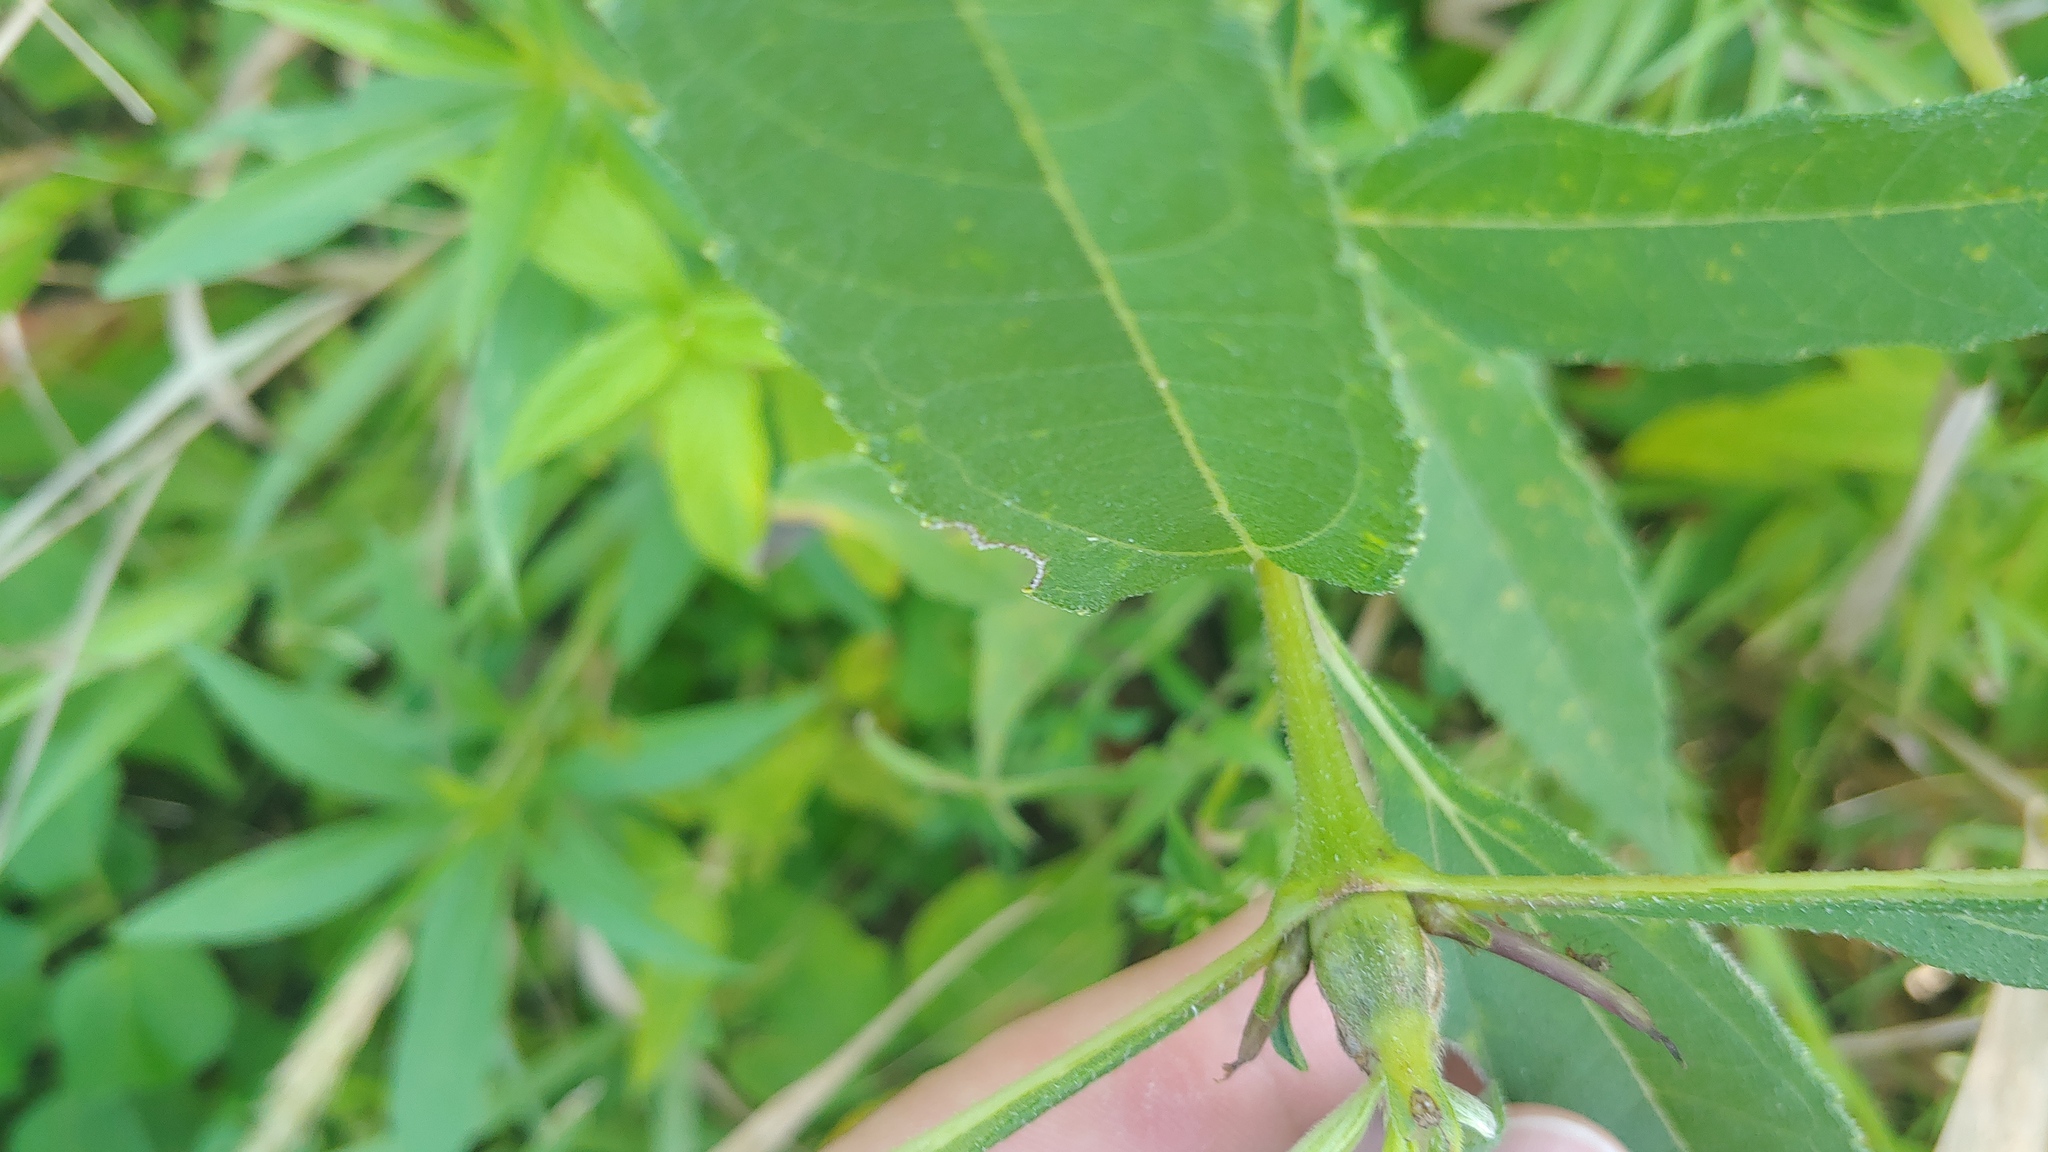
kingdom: Animalia
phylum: Arthropoda
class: Insecta
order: Diptera
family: Cecidomyiidae
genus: Olpodiplosis
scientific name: Olpodiplosis helianthi
